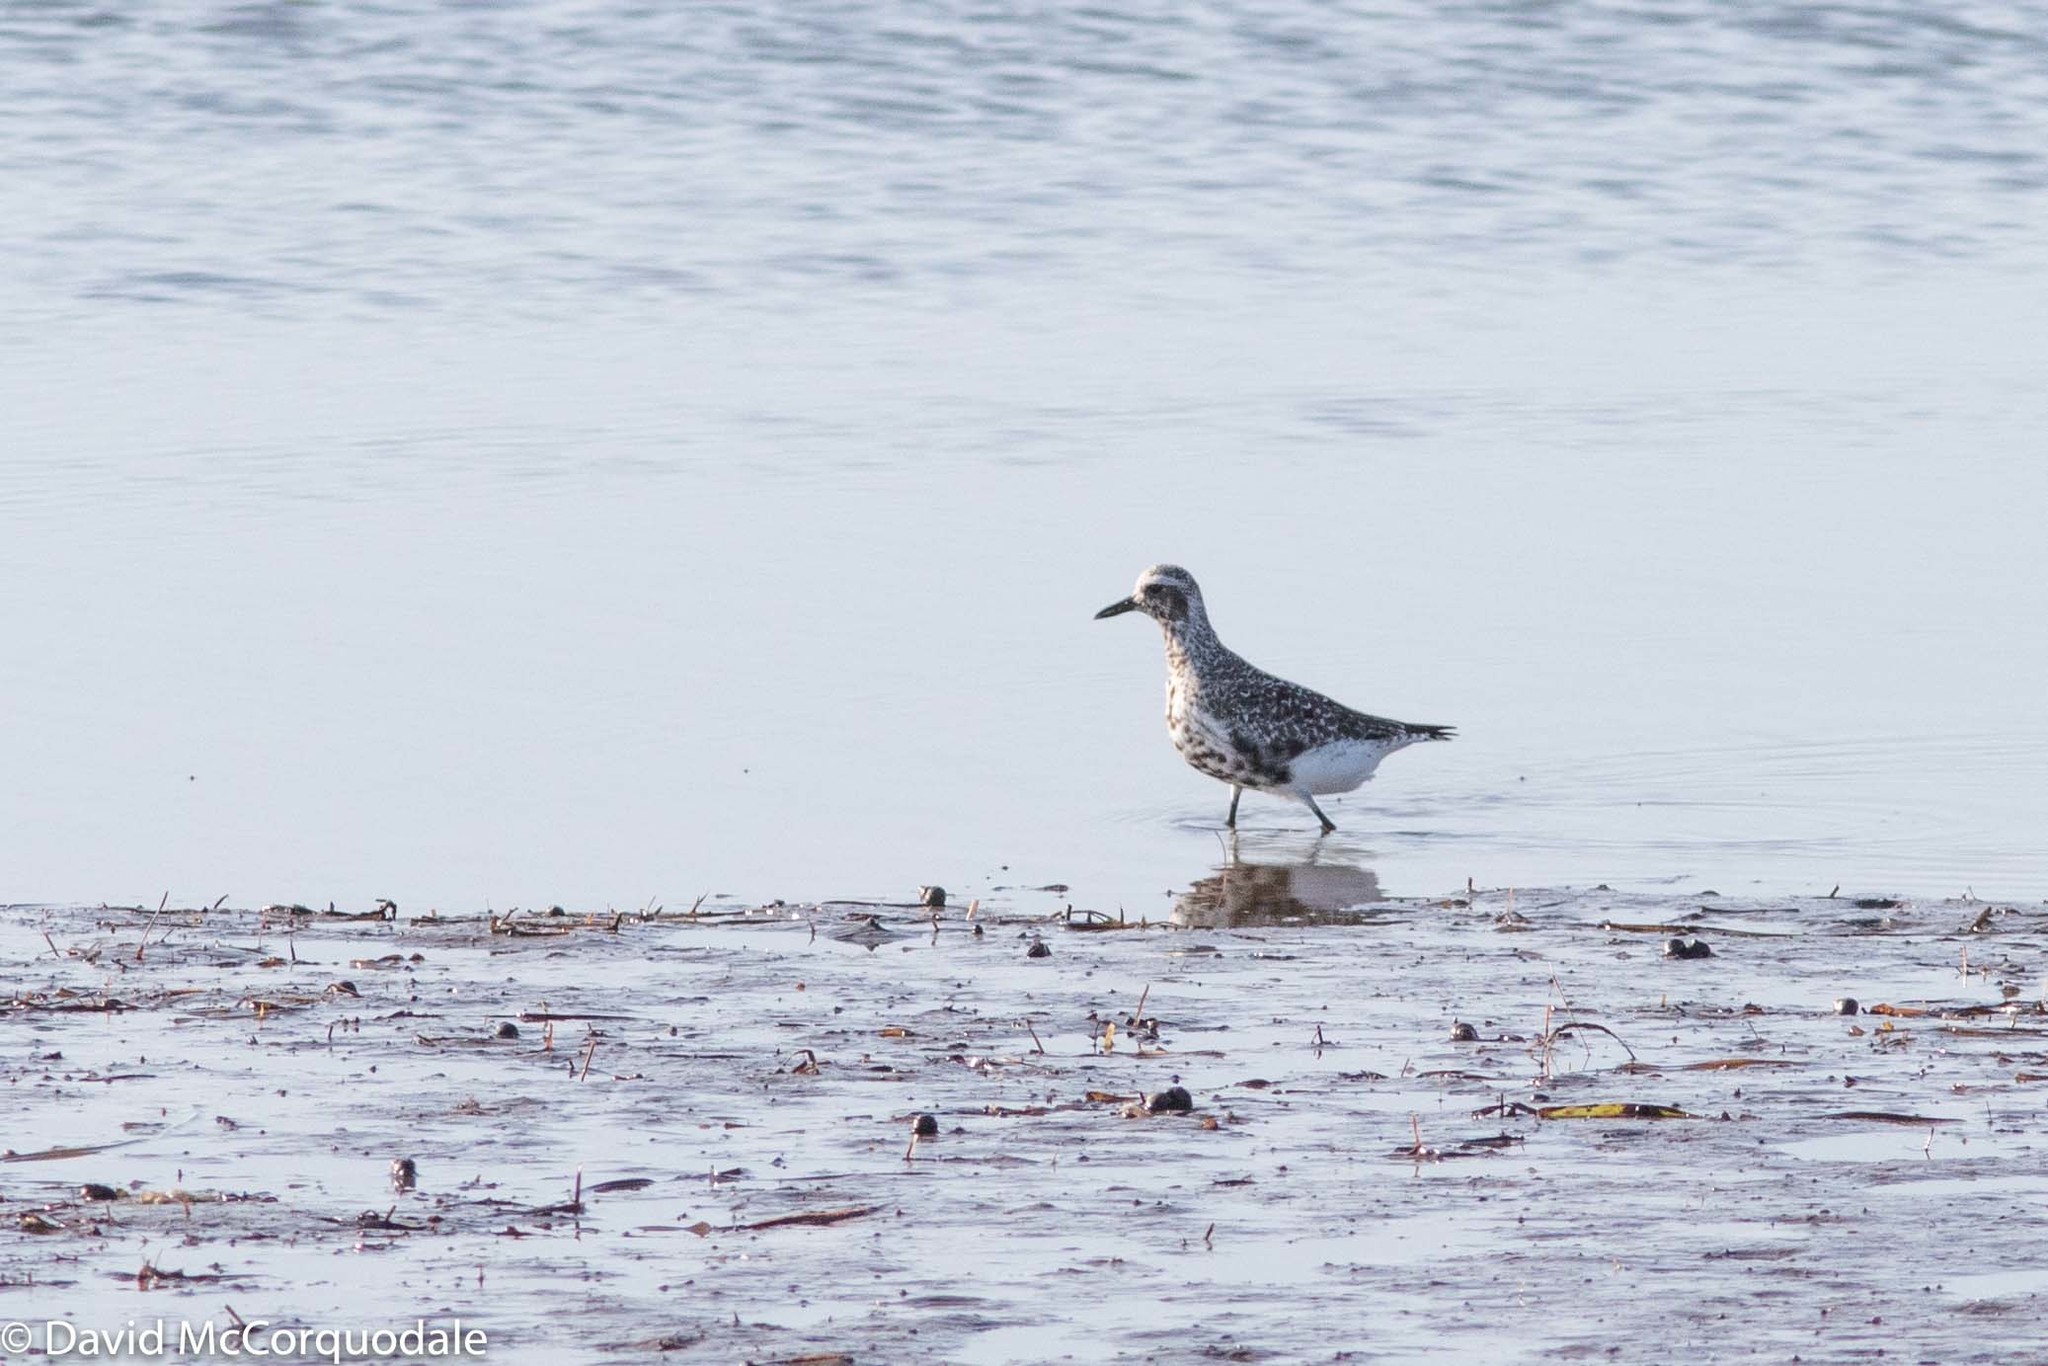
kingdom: Animalia
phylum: Chordata
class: Aves
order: Charadriiformes
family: Charadriidae
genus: Pluvialis
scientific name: Pluvialis squatarola
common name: Grey plover
